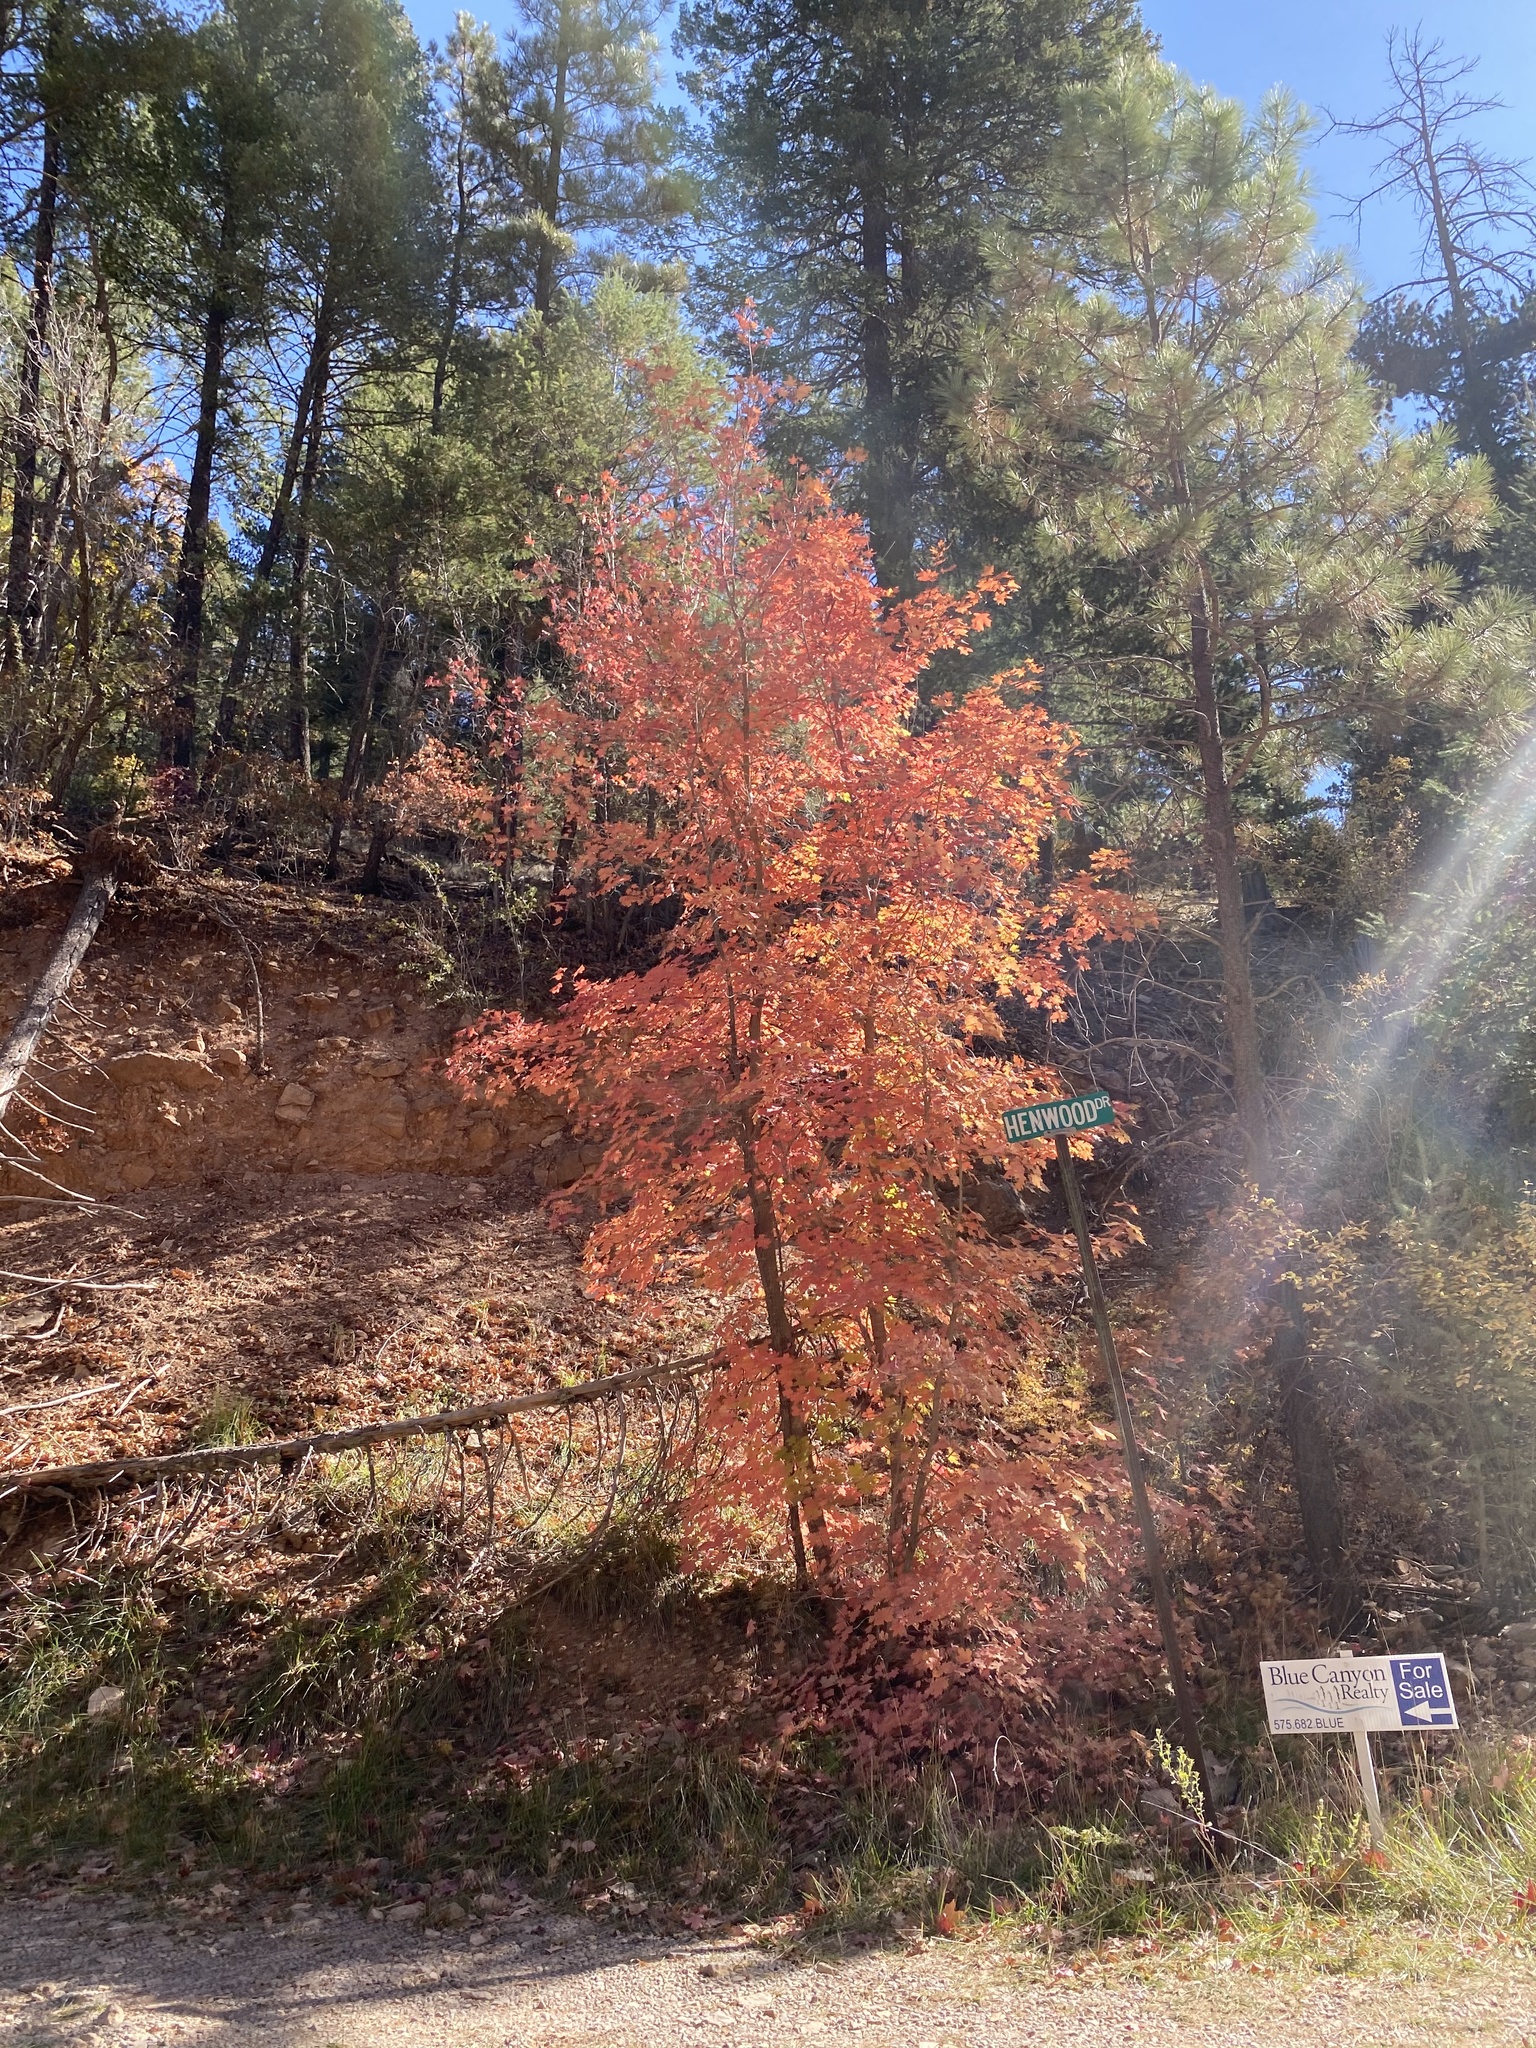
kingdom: Plantae
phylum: Tracheophyta
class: Magnoliopsida
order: Sapindales
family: Sapindaceae
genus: Acer
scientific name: Acer grandidentatum
